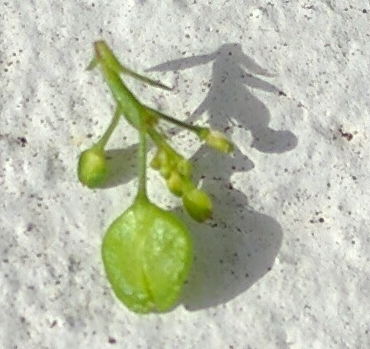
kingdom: Plantae
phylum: Tracheophyta
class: Magnoliopsida
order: Brassicales
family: Brassicaceae
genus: Lepidium
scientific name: Lepidium virginicum
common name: Least pepperwort
